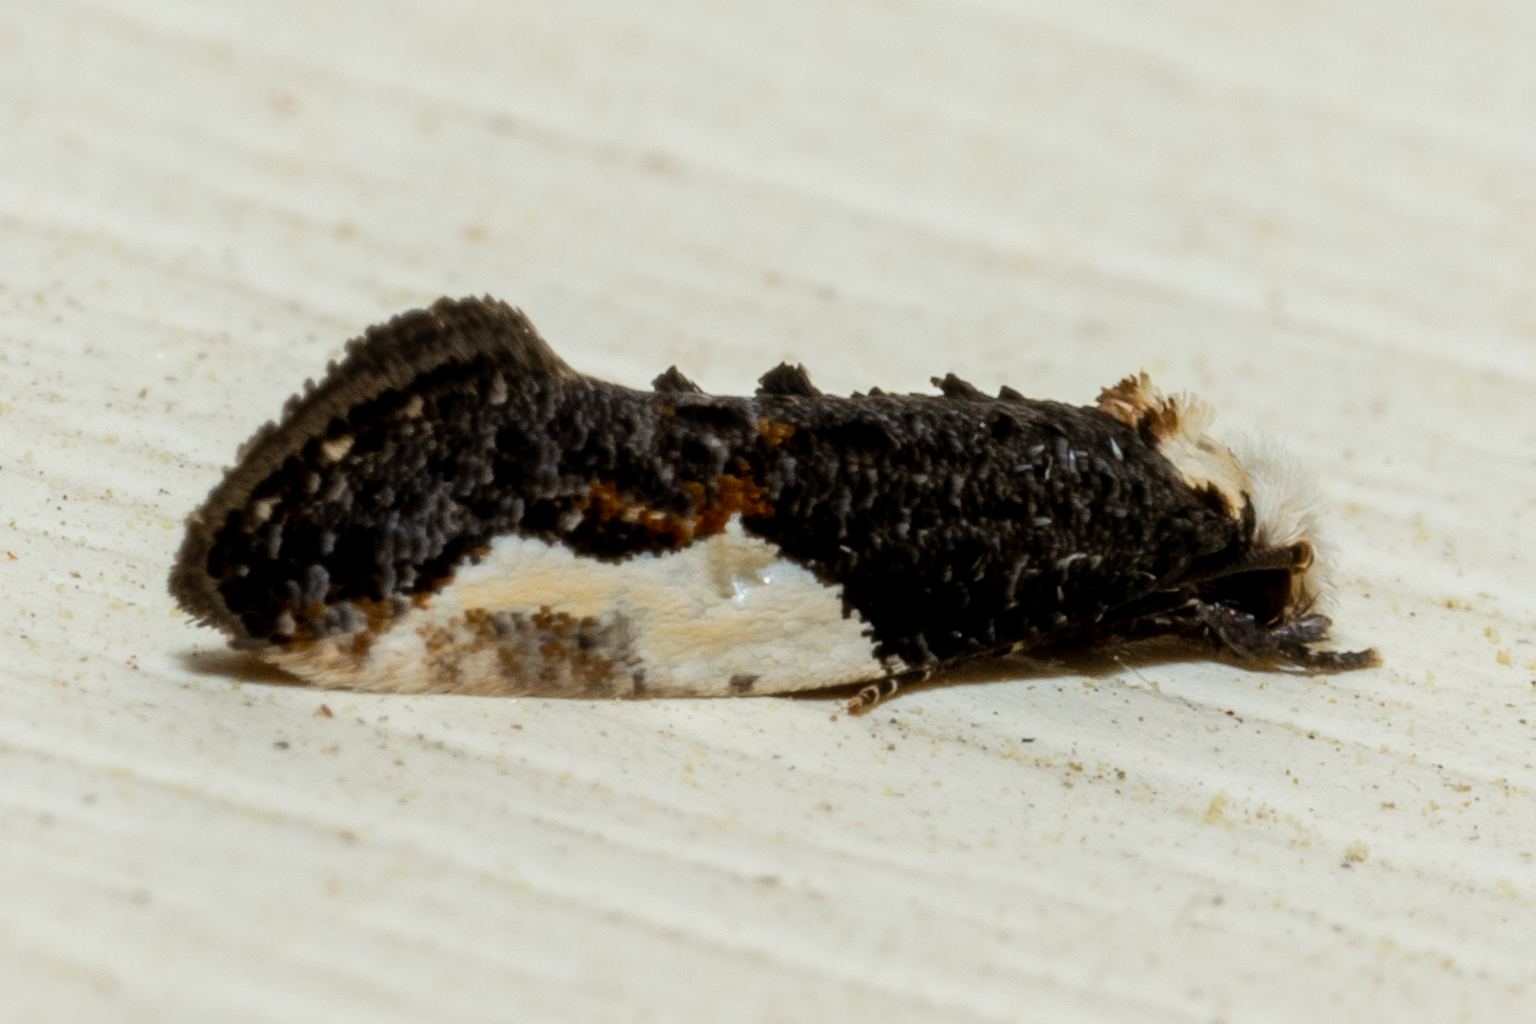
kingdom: Animalia
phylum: Arthropoda
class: Insecta
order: Lepidoptera
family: Tineidae
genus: Monopis
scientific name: Monopis longella
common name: Pavlovski's monopis moth
